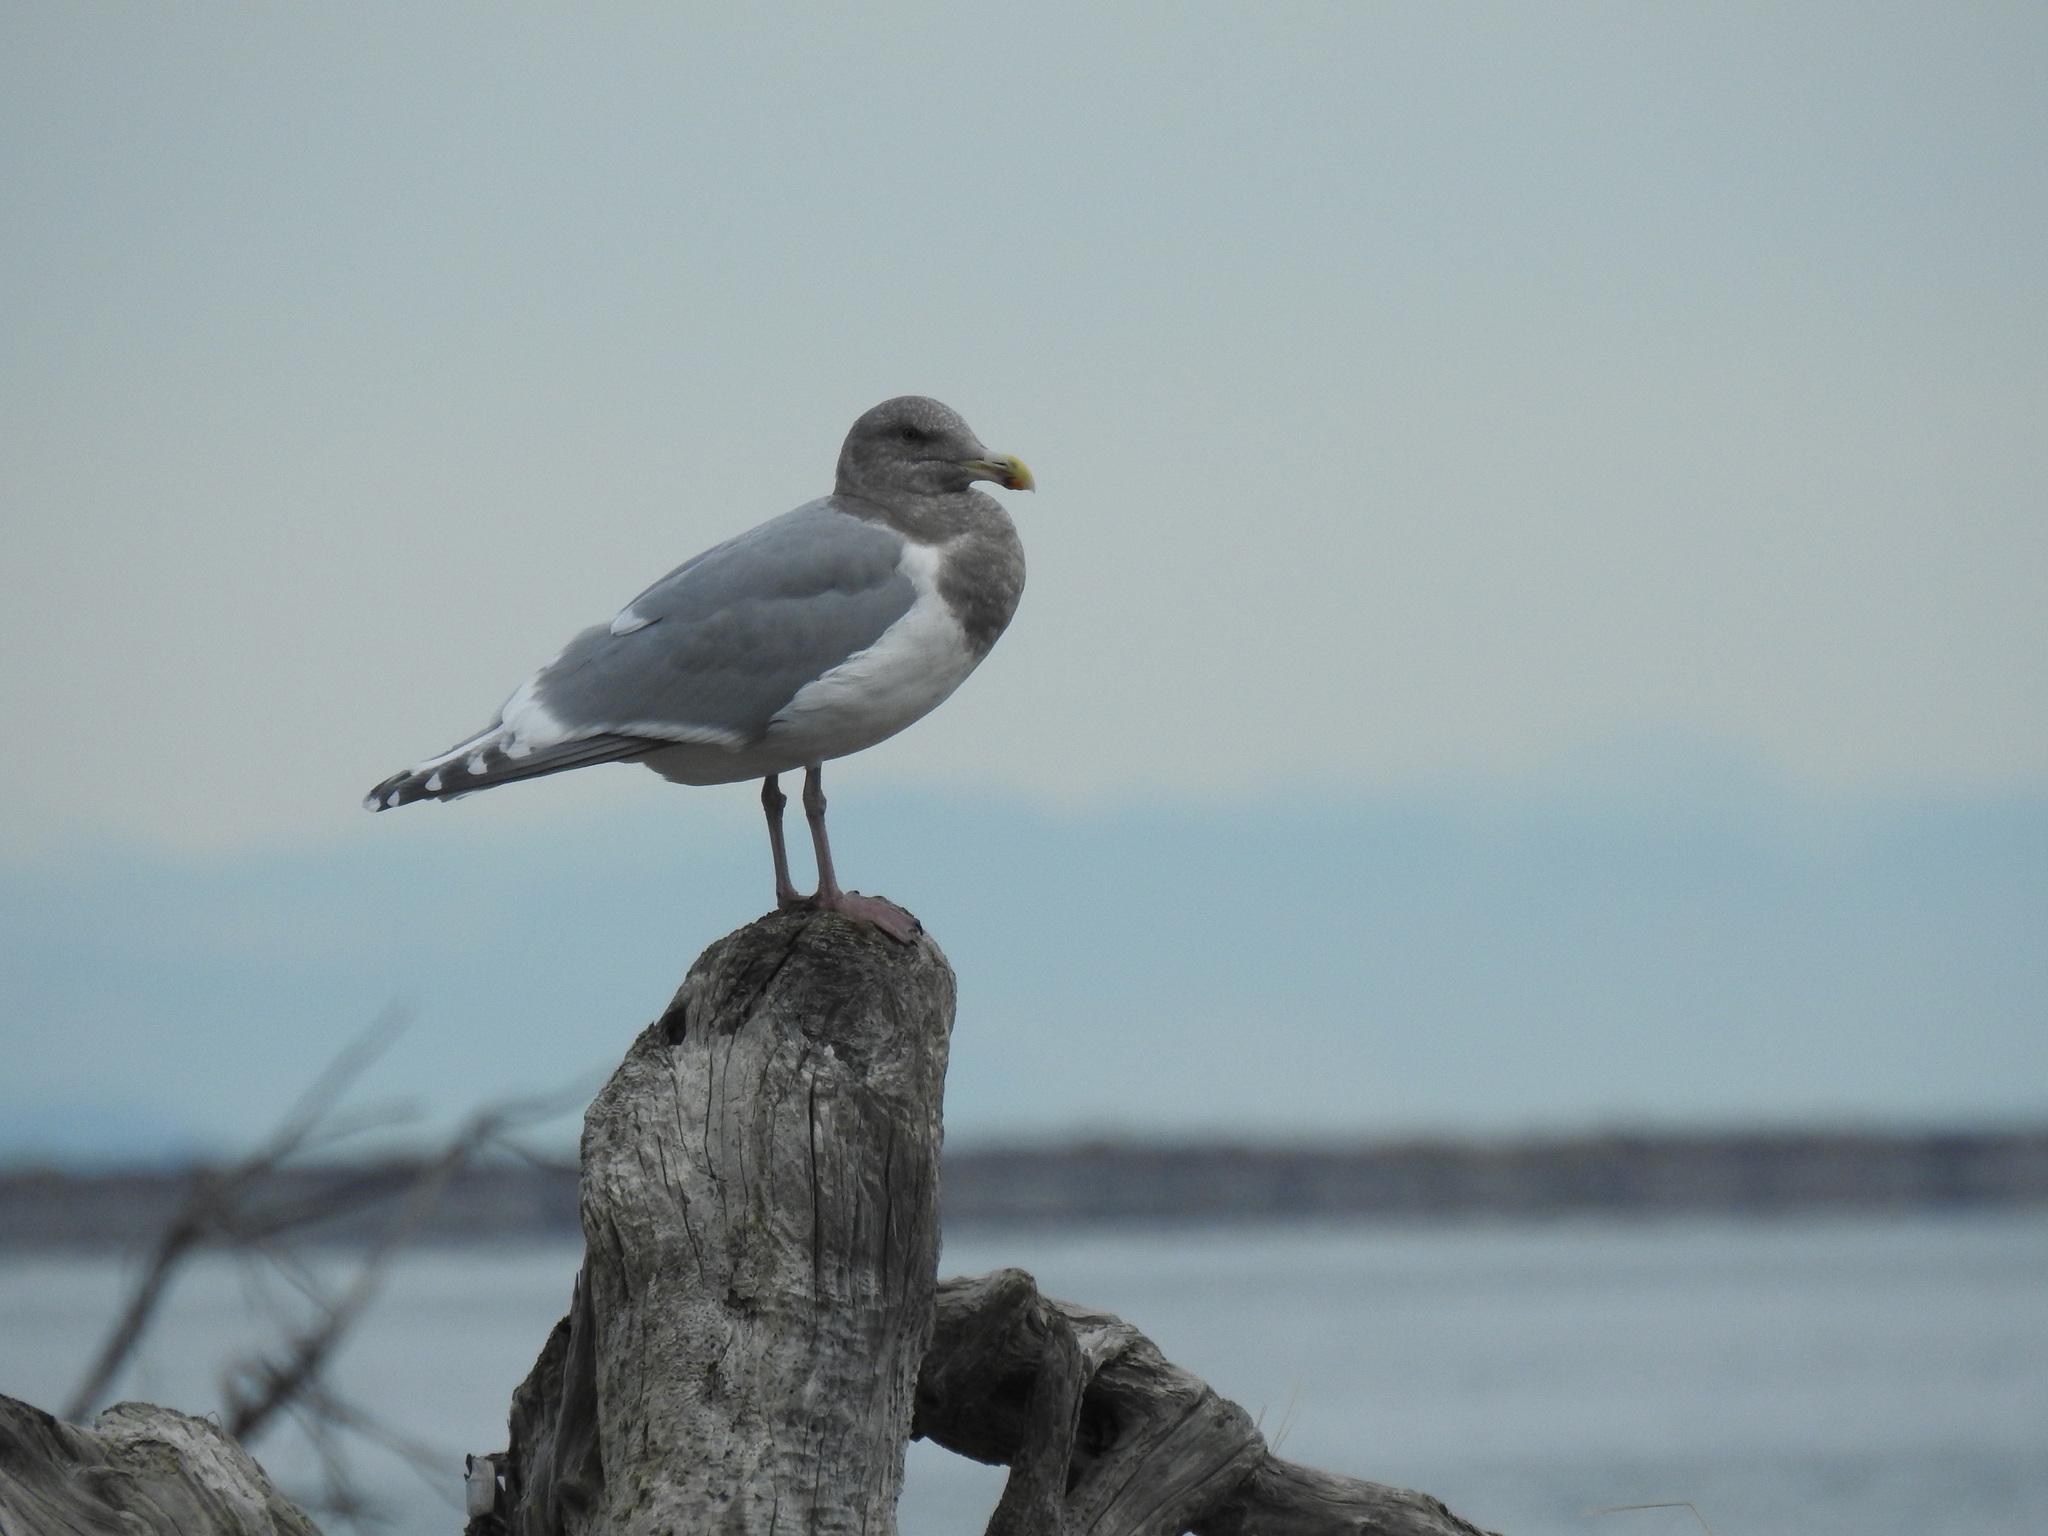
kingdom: Animalia
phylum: Chordata
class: Aves
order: Charadriiformes
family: Laridae
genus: Larus
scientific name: Larus
